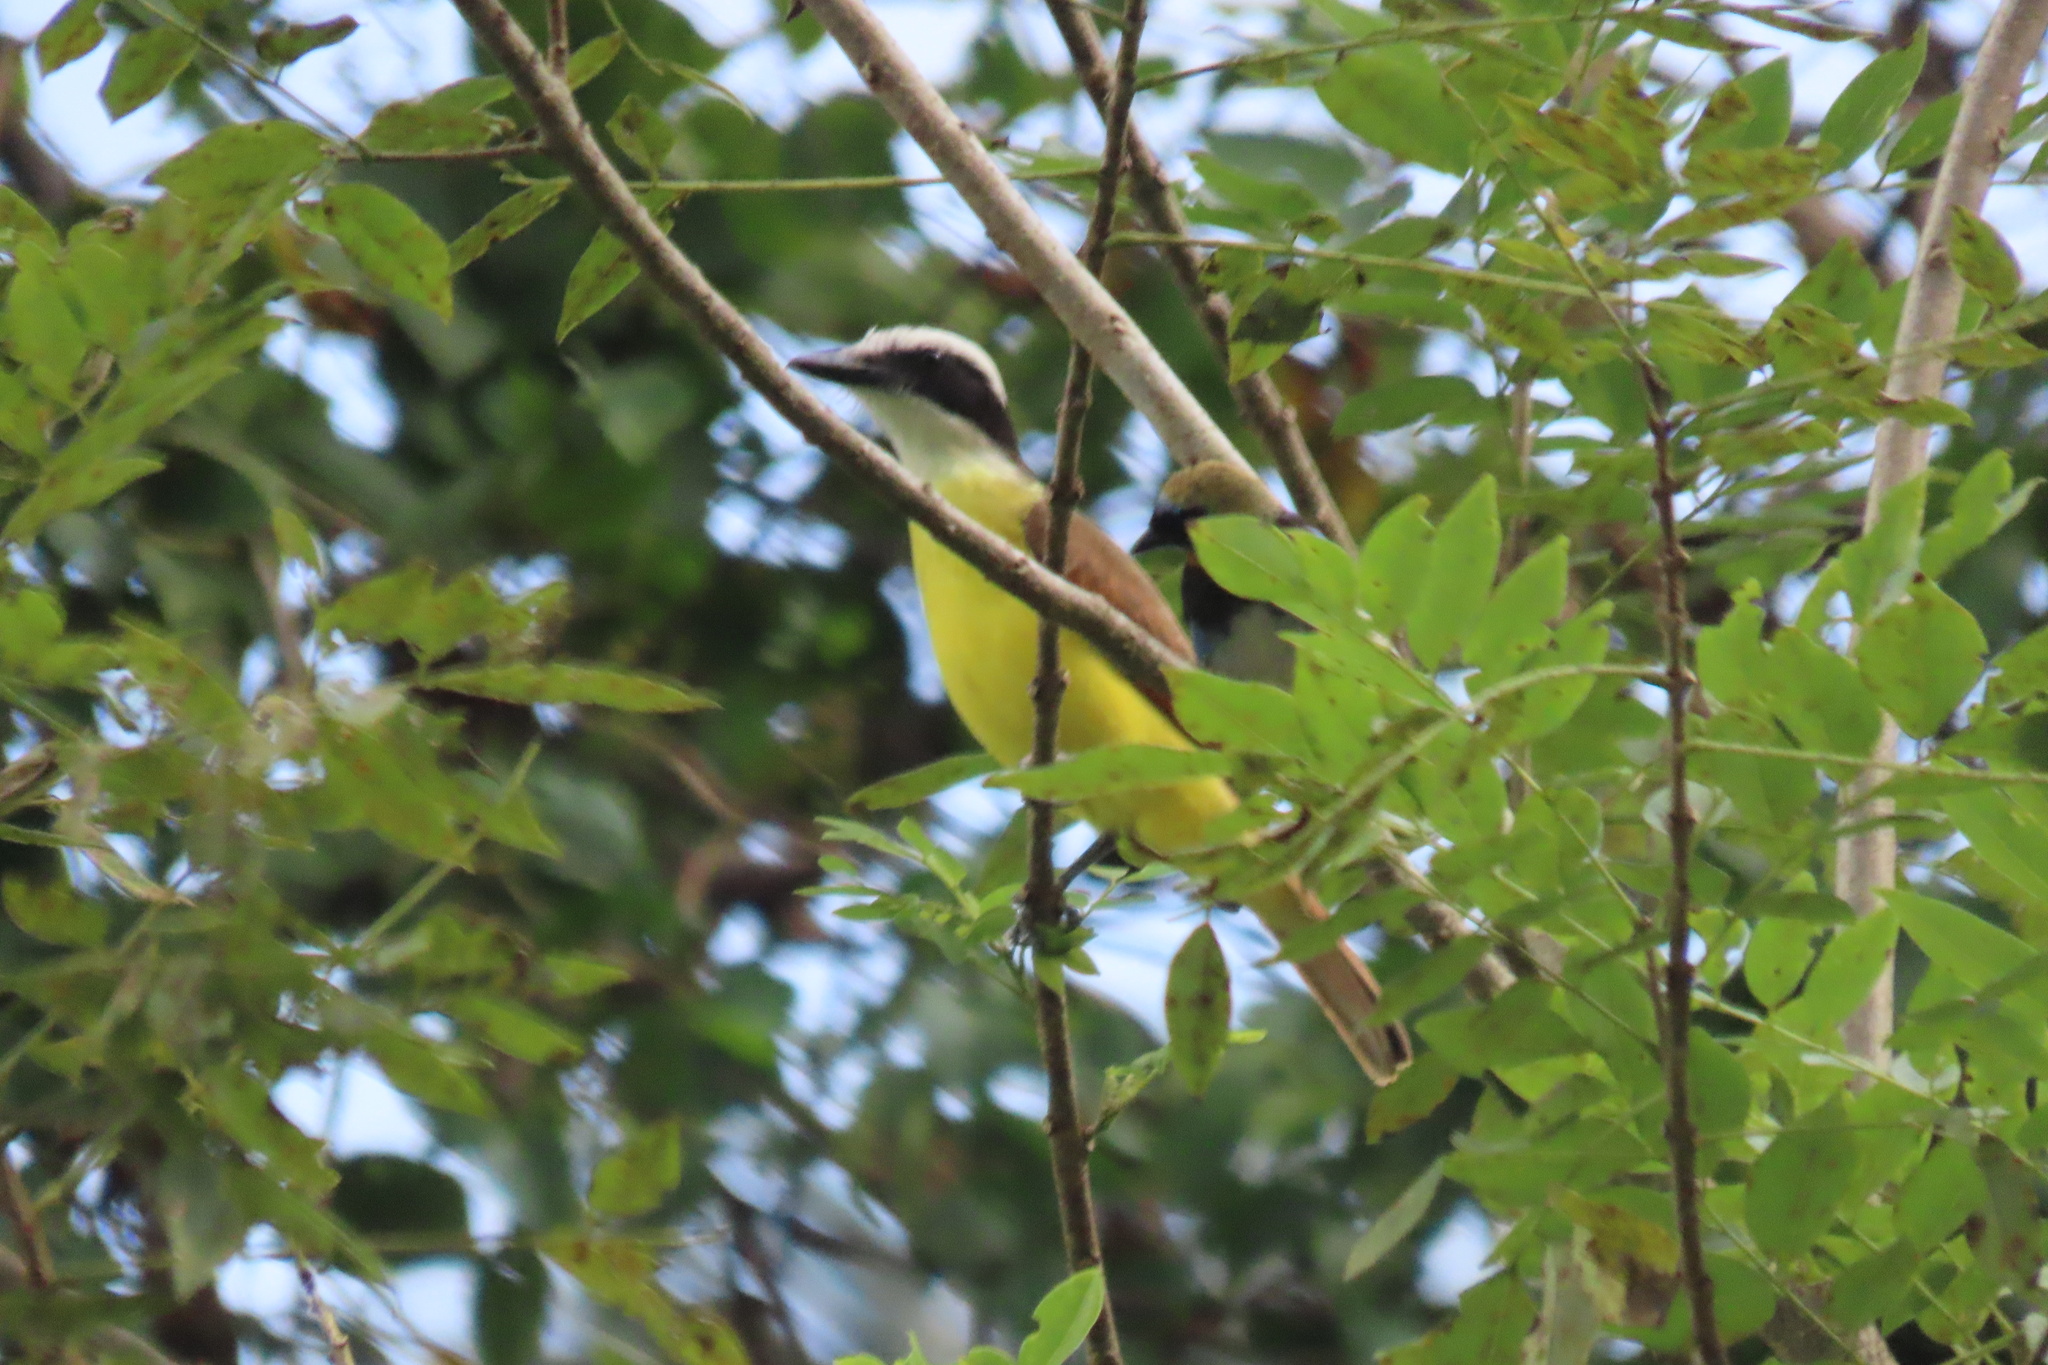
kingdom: Animalia
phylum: Chordata
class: Aves
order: Passeriformes
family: Tyrannidae
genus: Pitangus
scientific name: Pitangus sulphuratus
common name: Great kiskadee
